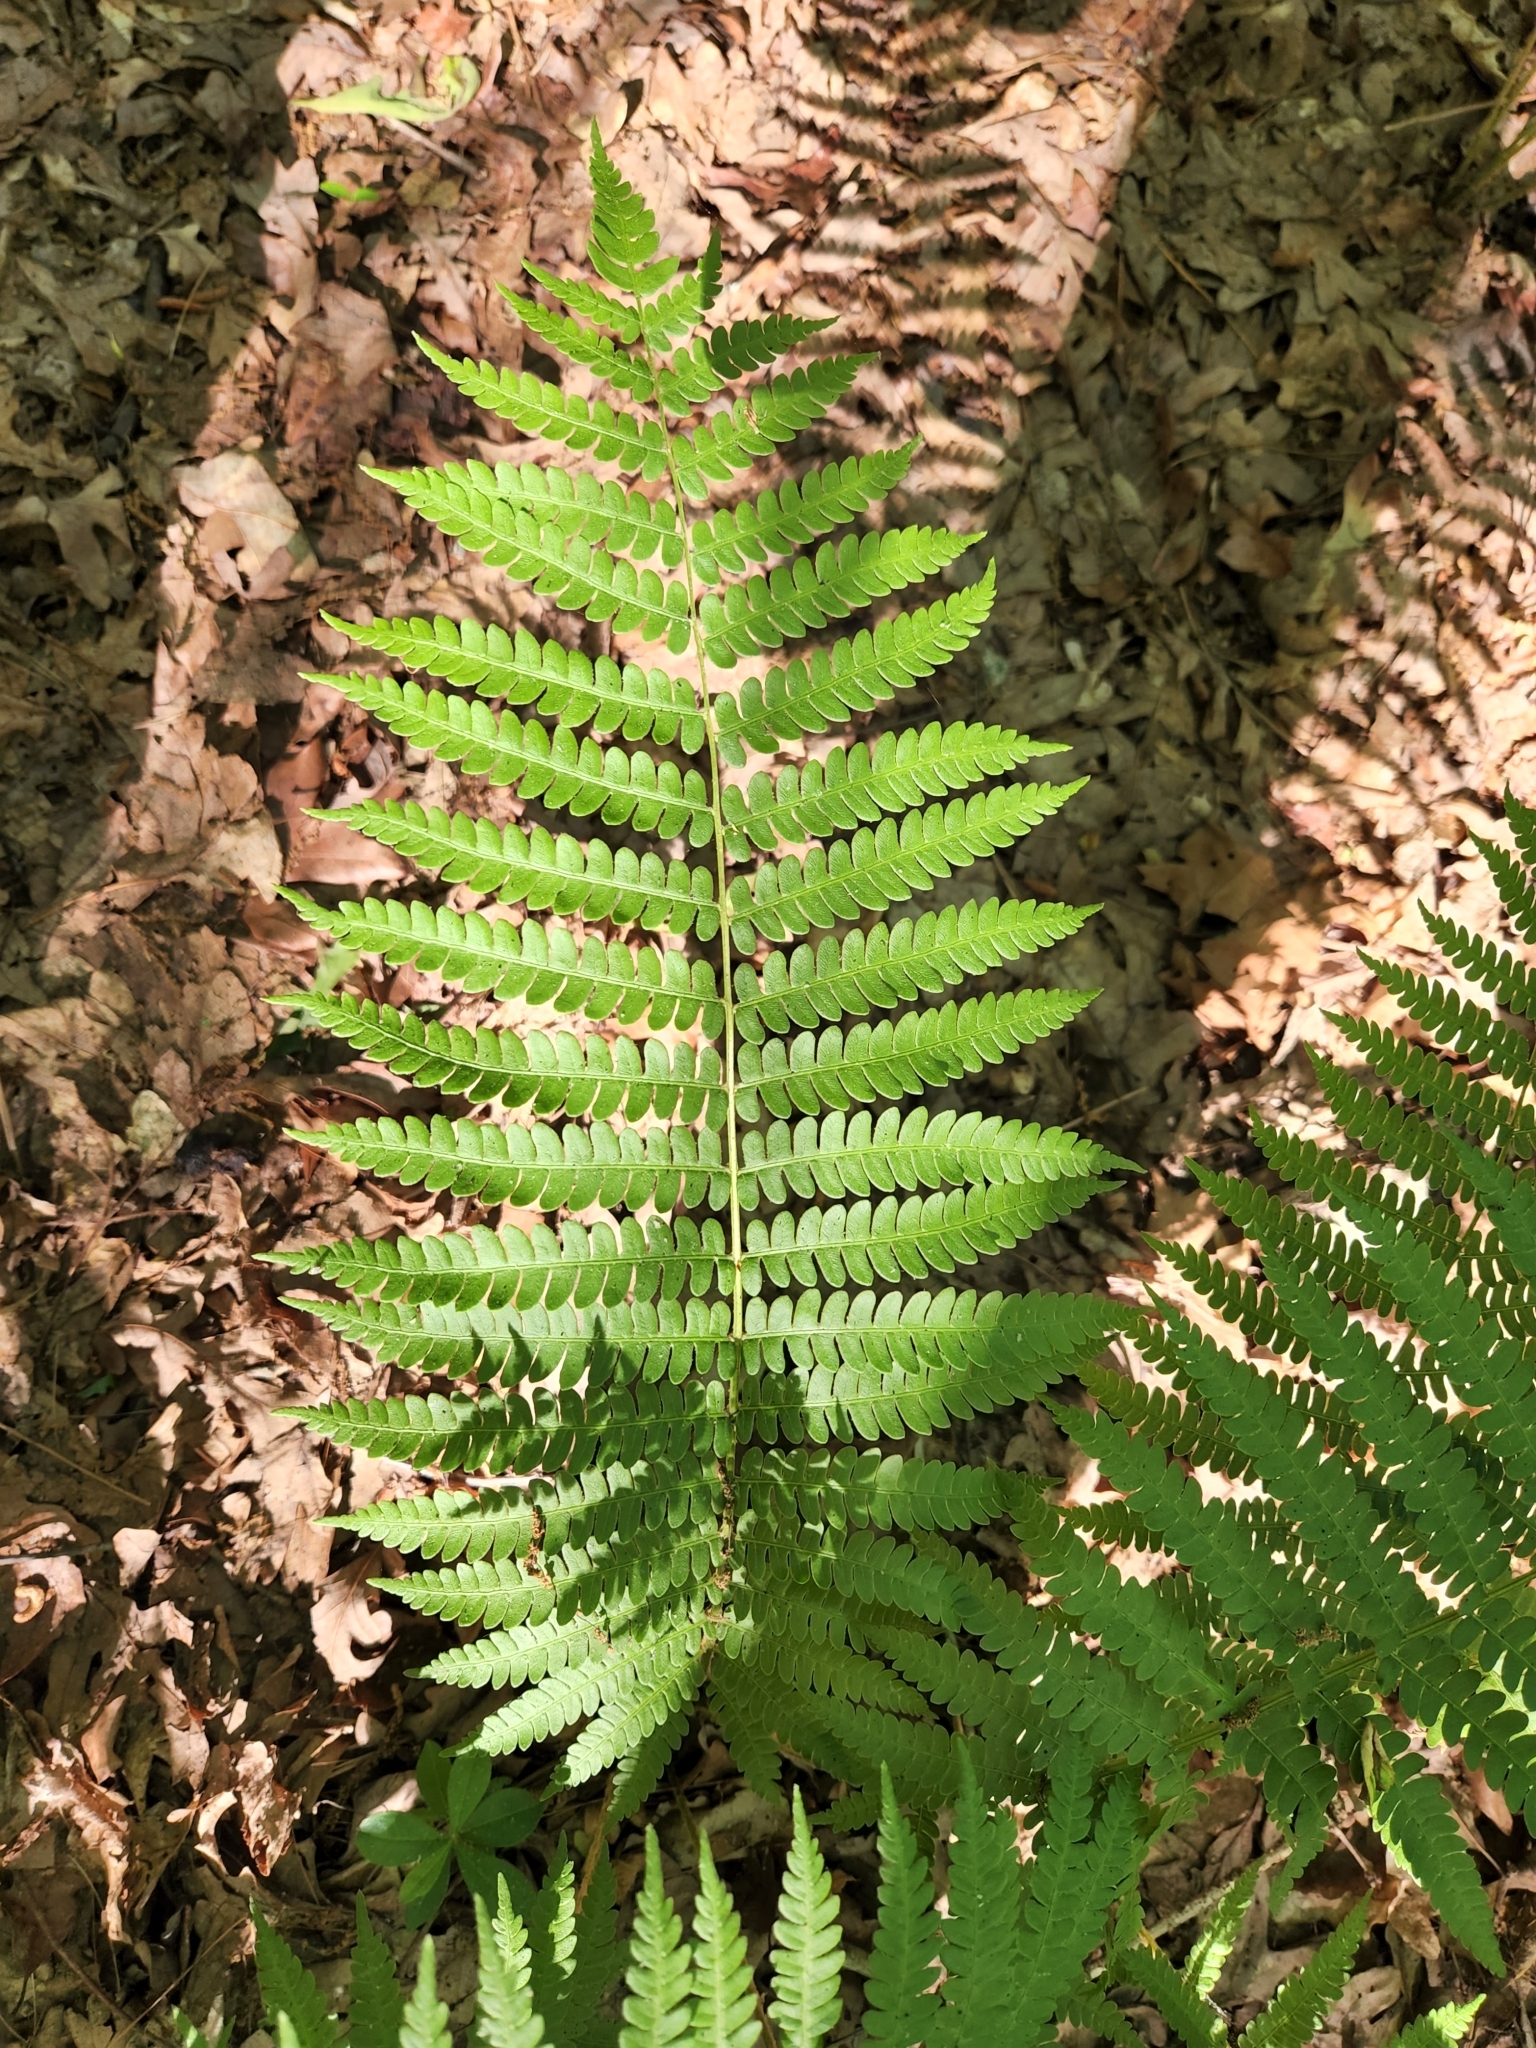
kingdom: Plantae
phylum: Tracheophyta
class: Polypodiopsida
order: Osmundales
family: Osmundaceae
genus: Osmundastrum
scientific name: Osmundastrum cinnamomeum
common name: Cinnamon fern
